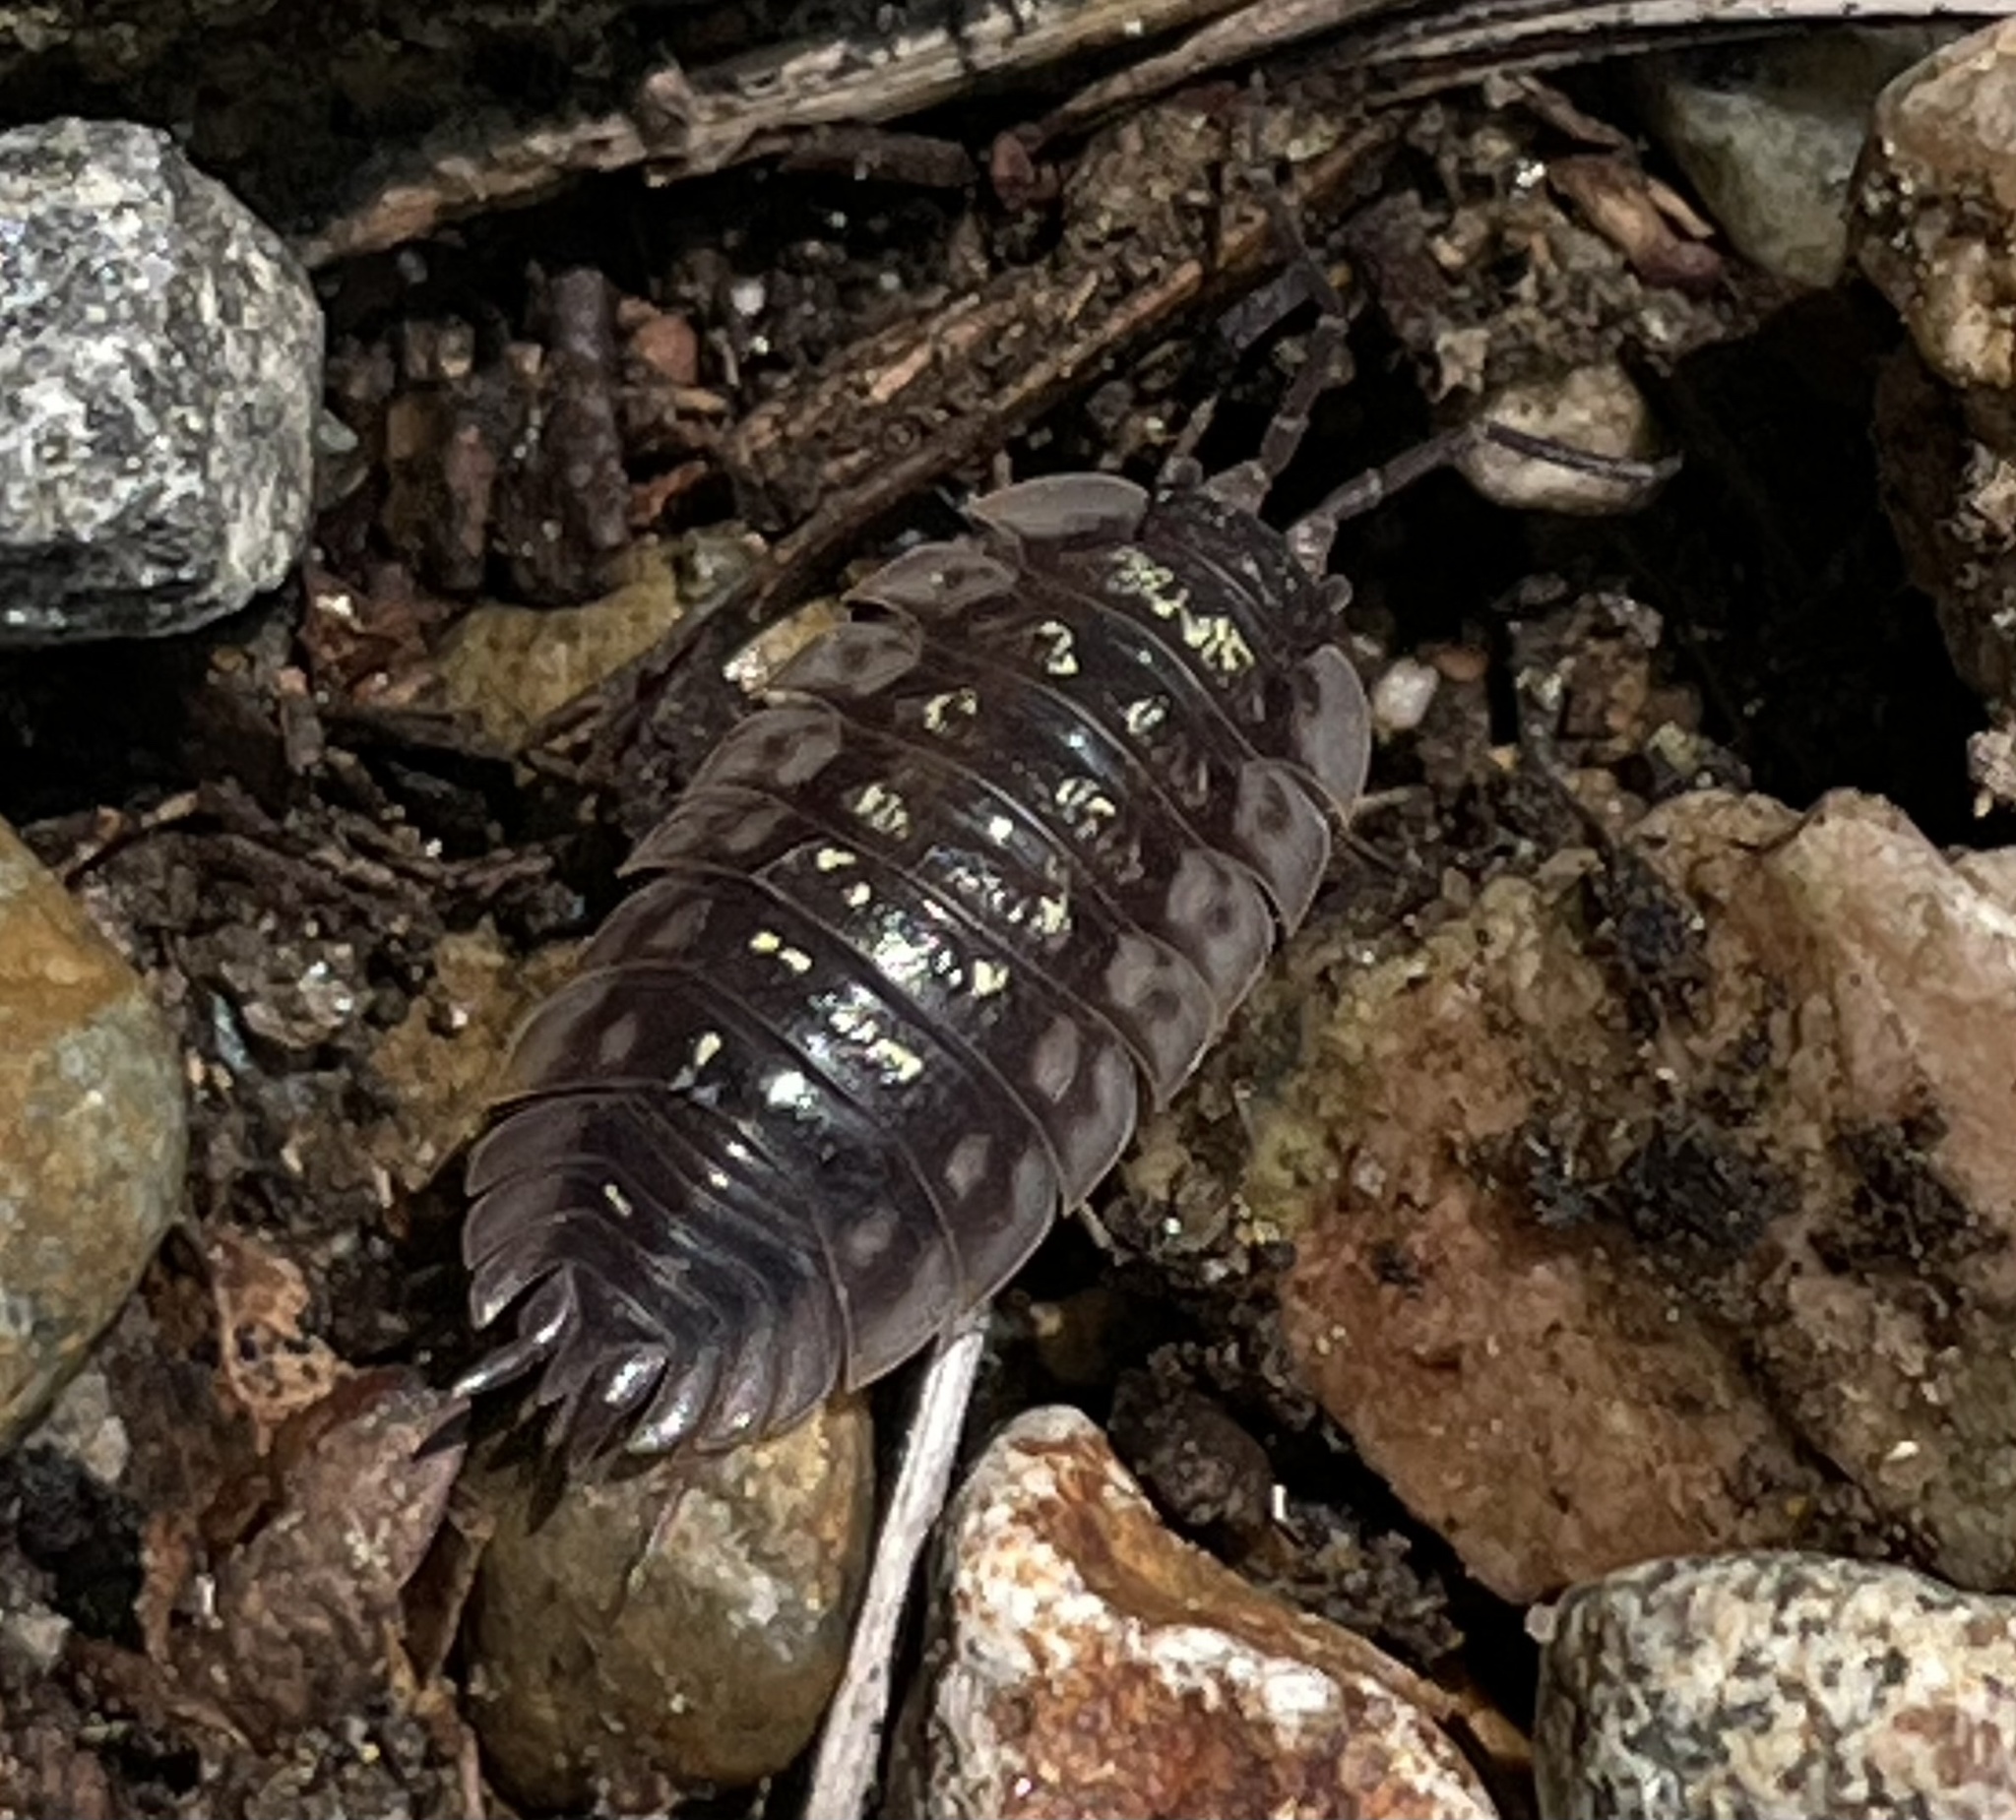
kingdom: Animalia
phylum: Arthropoda
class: Malacostraca
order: Isopoda
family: Oniscidae
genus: Oniscus
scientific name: Oniscus asellus
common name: Common shiny woodlouse
